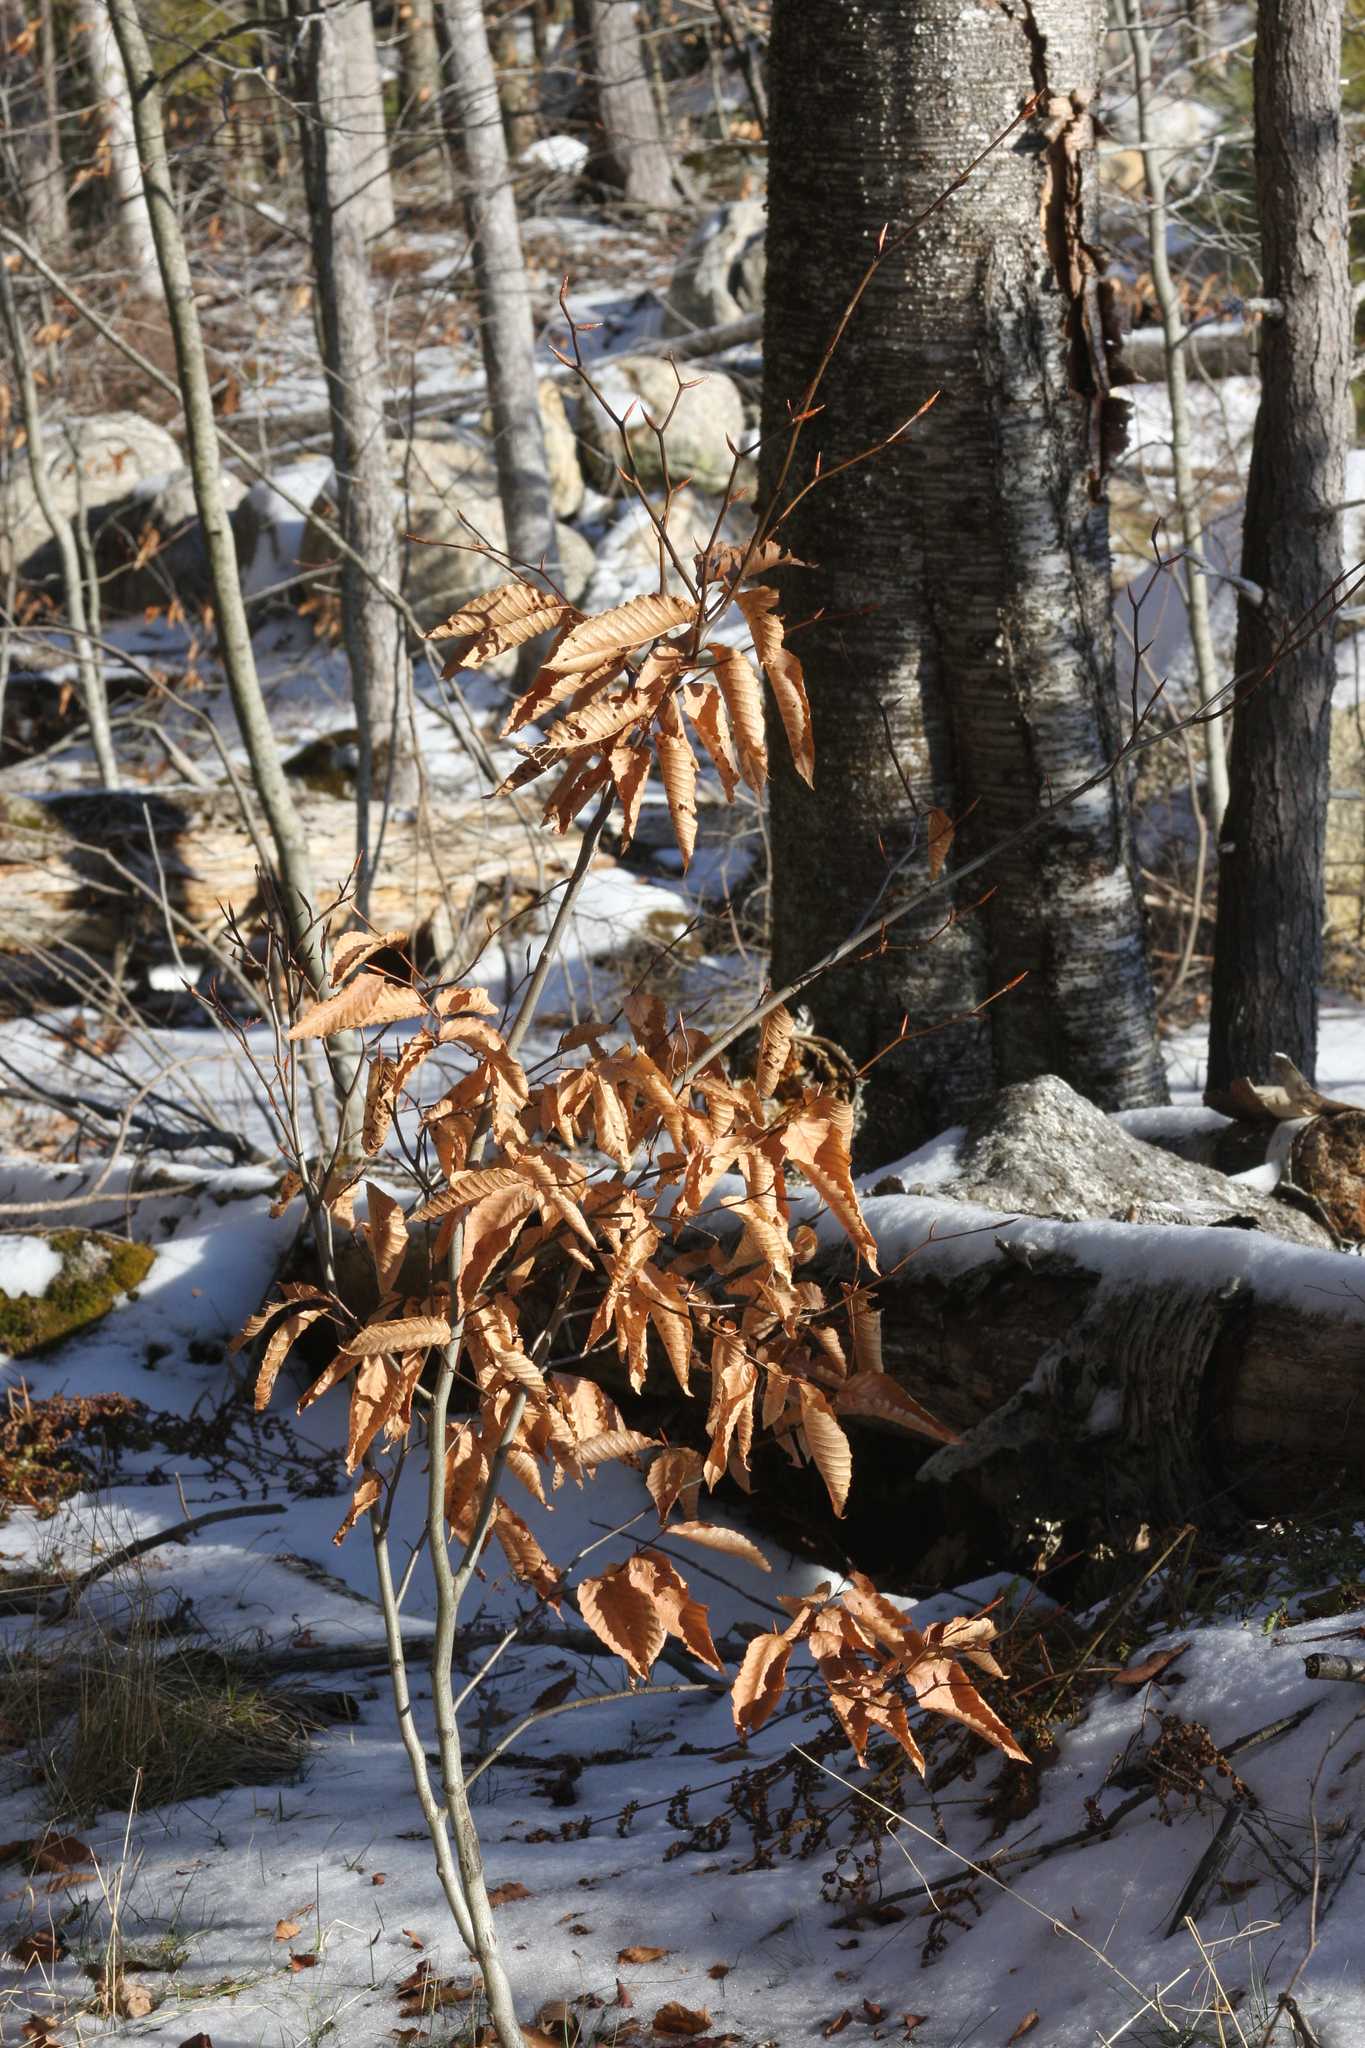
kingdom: Plantae
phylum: Tracheophyta
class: Magnoliopsida
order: Fagales
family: Fagaceae
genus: Fagus
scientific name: Fagus grandifolia
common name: American beech
